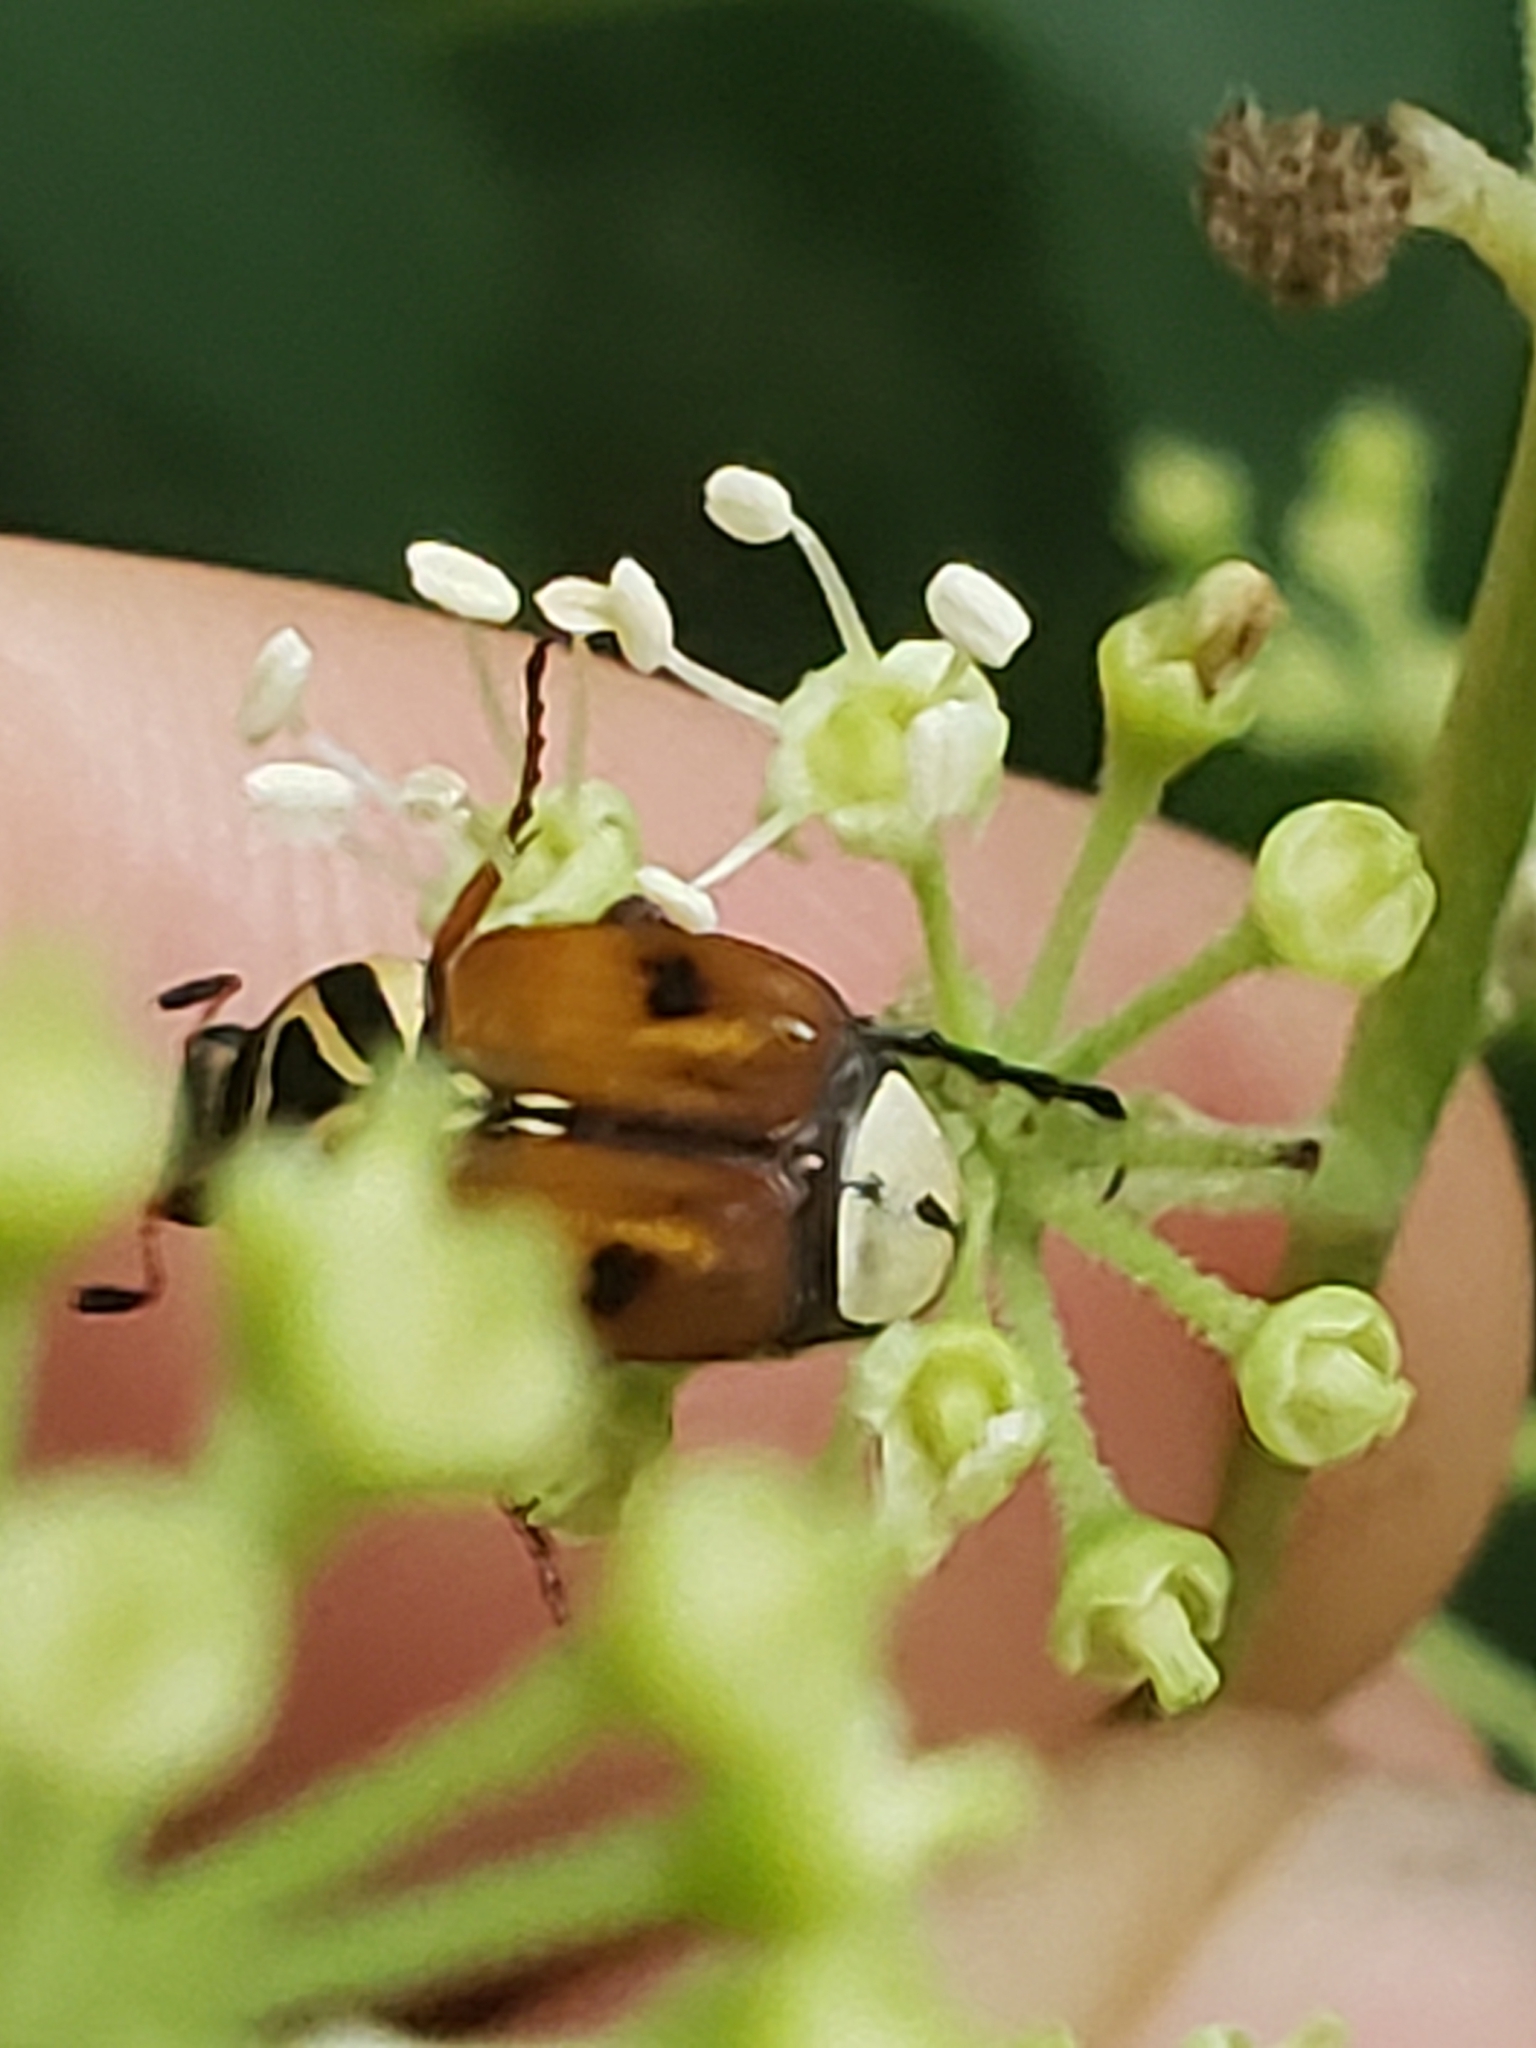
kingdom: Animalia
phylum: Arthropoda
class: Insecta
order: Coleoptera
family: Scarabaeidae
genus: Trigonopeltastes
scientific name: Trigonopeltastes delta
